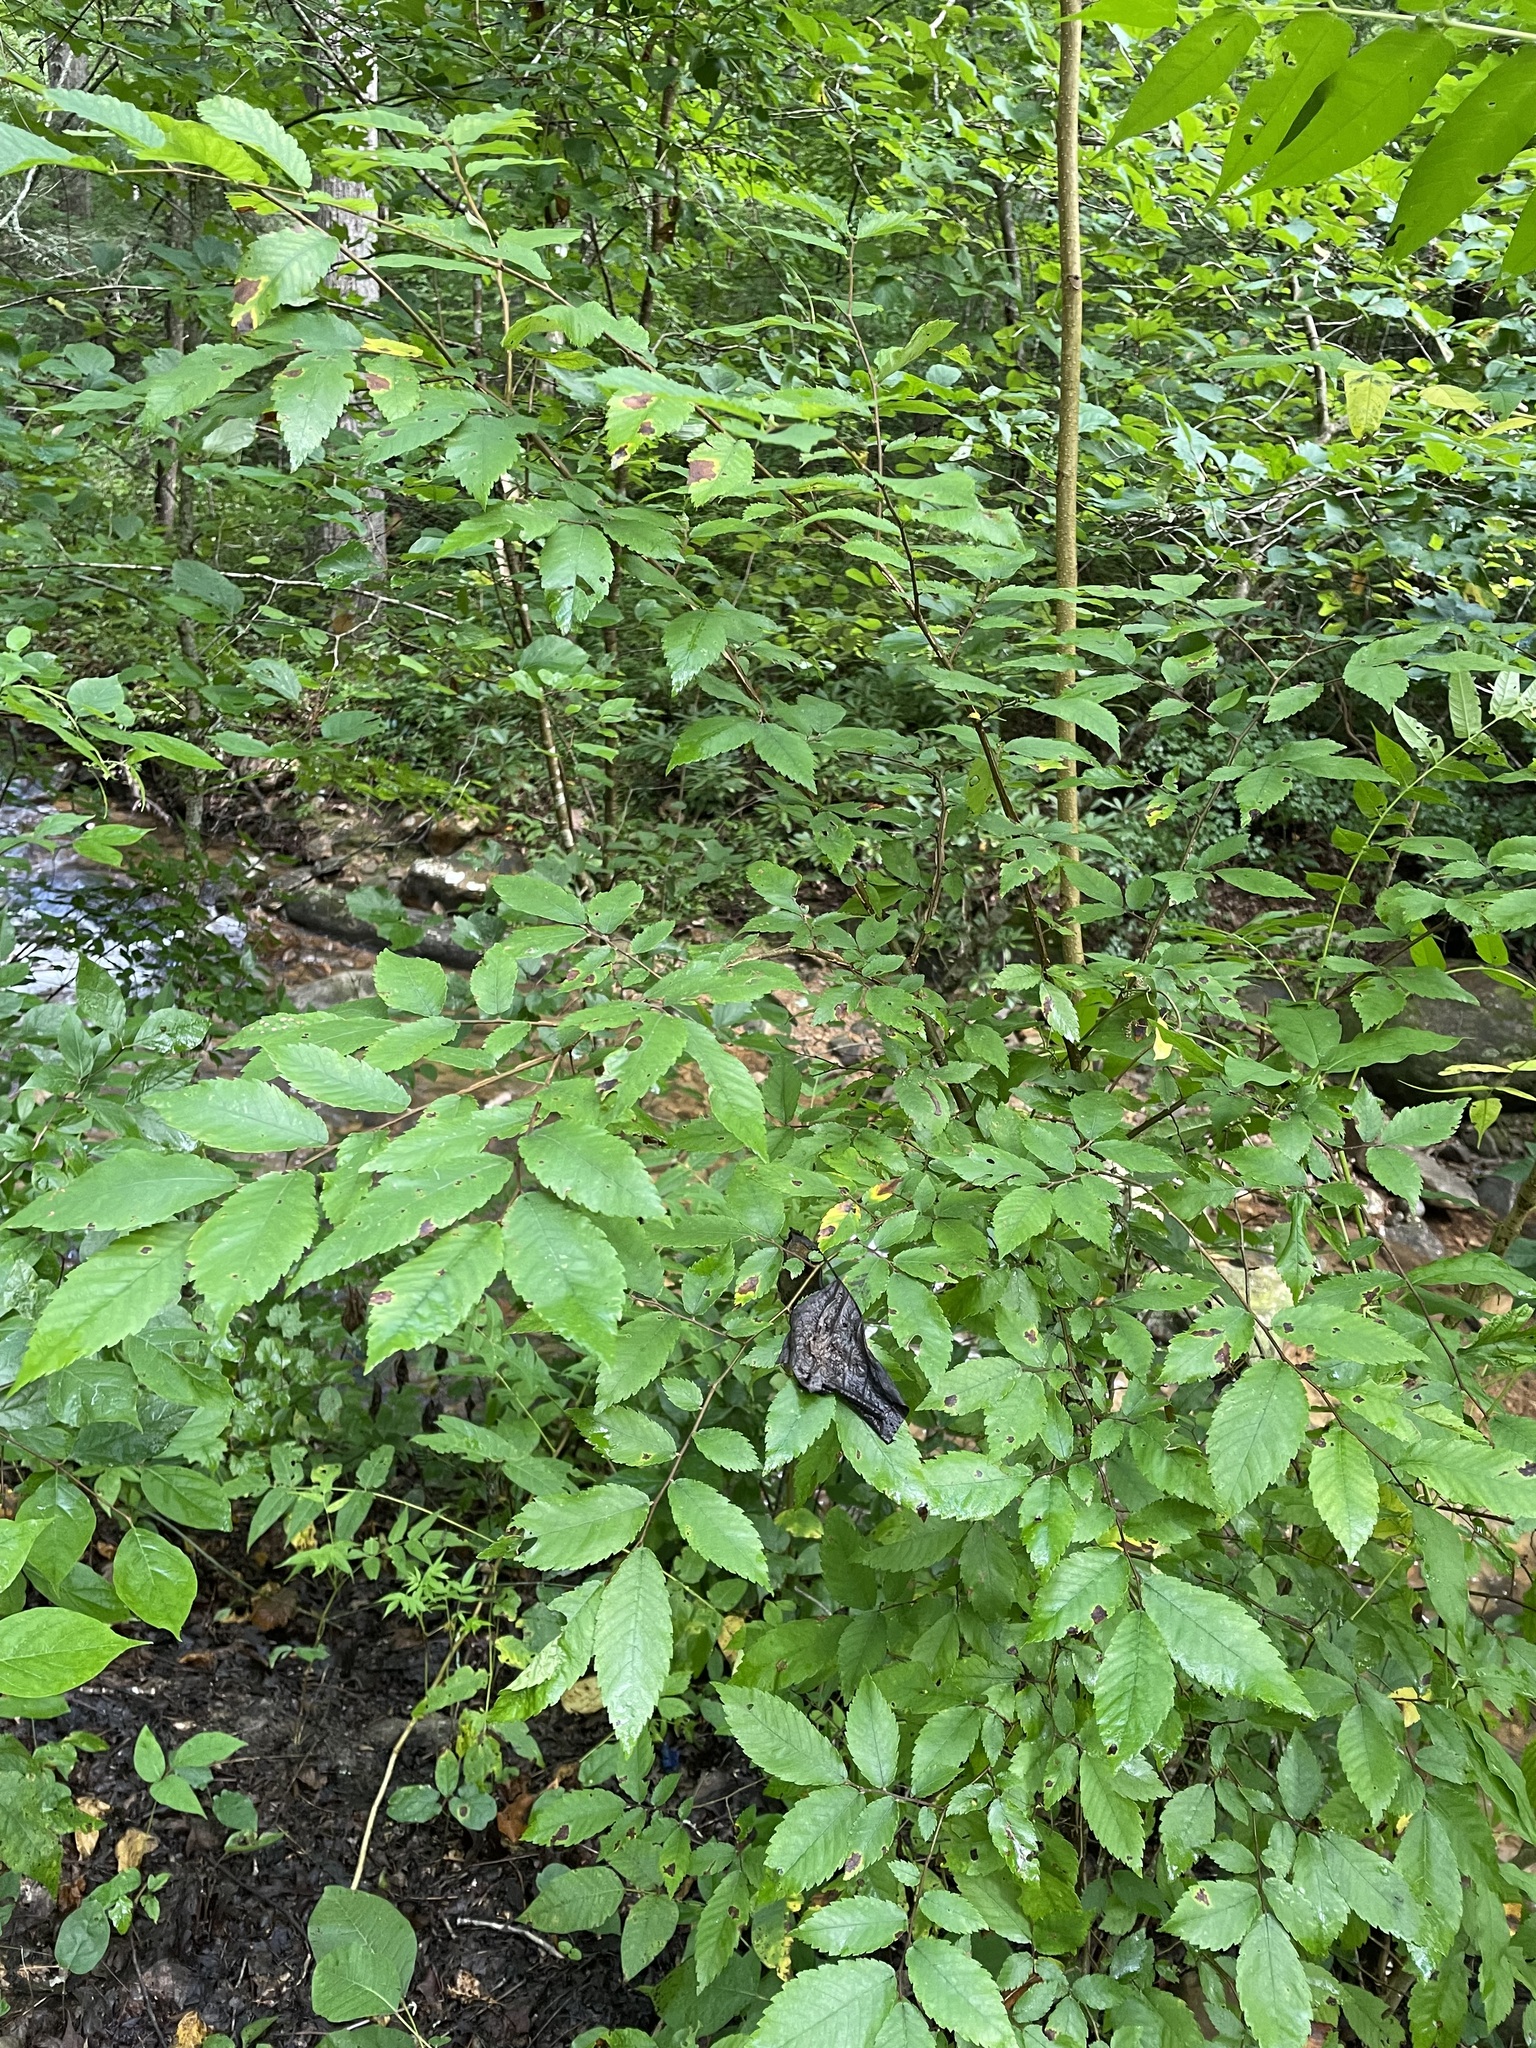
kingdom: Plantae
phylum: Tracheophyta
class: Magnoliopsida
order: Rosales
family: Ulmaceae
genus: Ulmus
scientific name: Ulmus alata
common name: Winged elm
